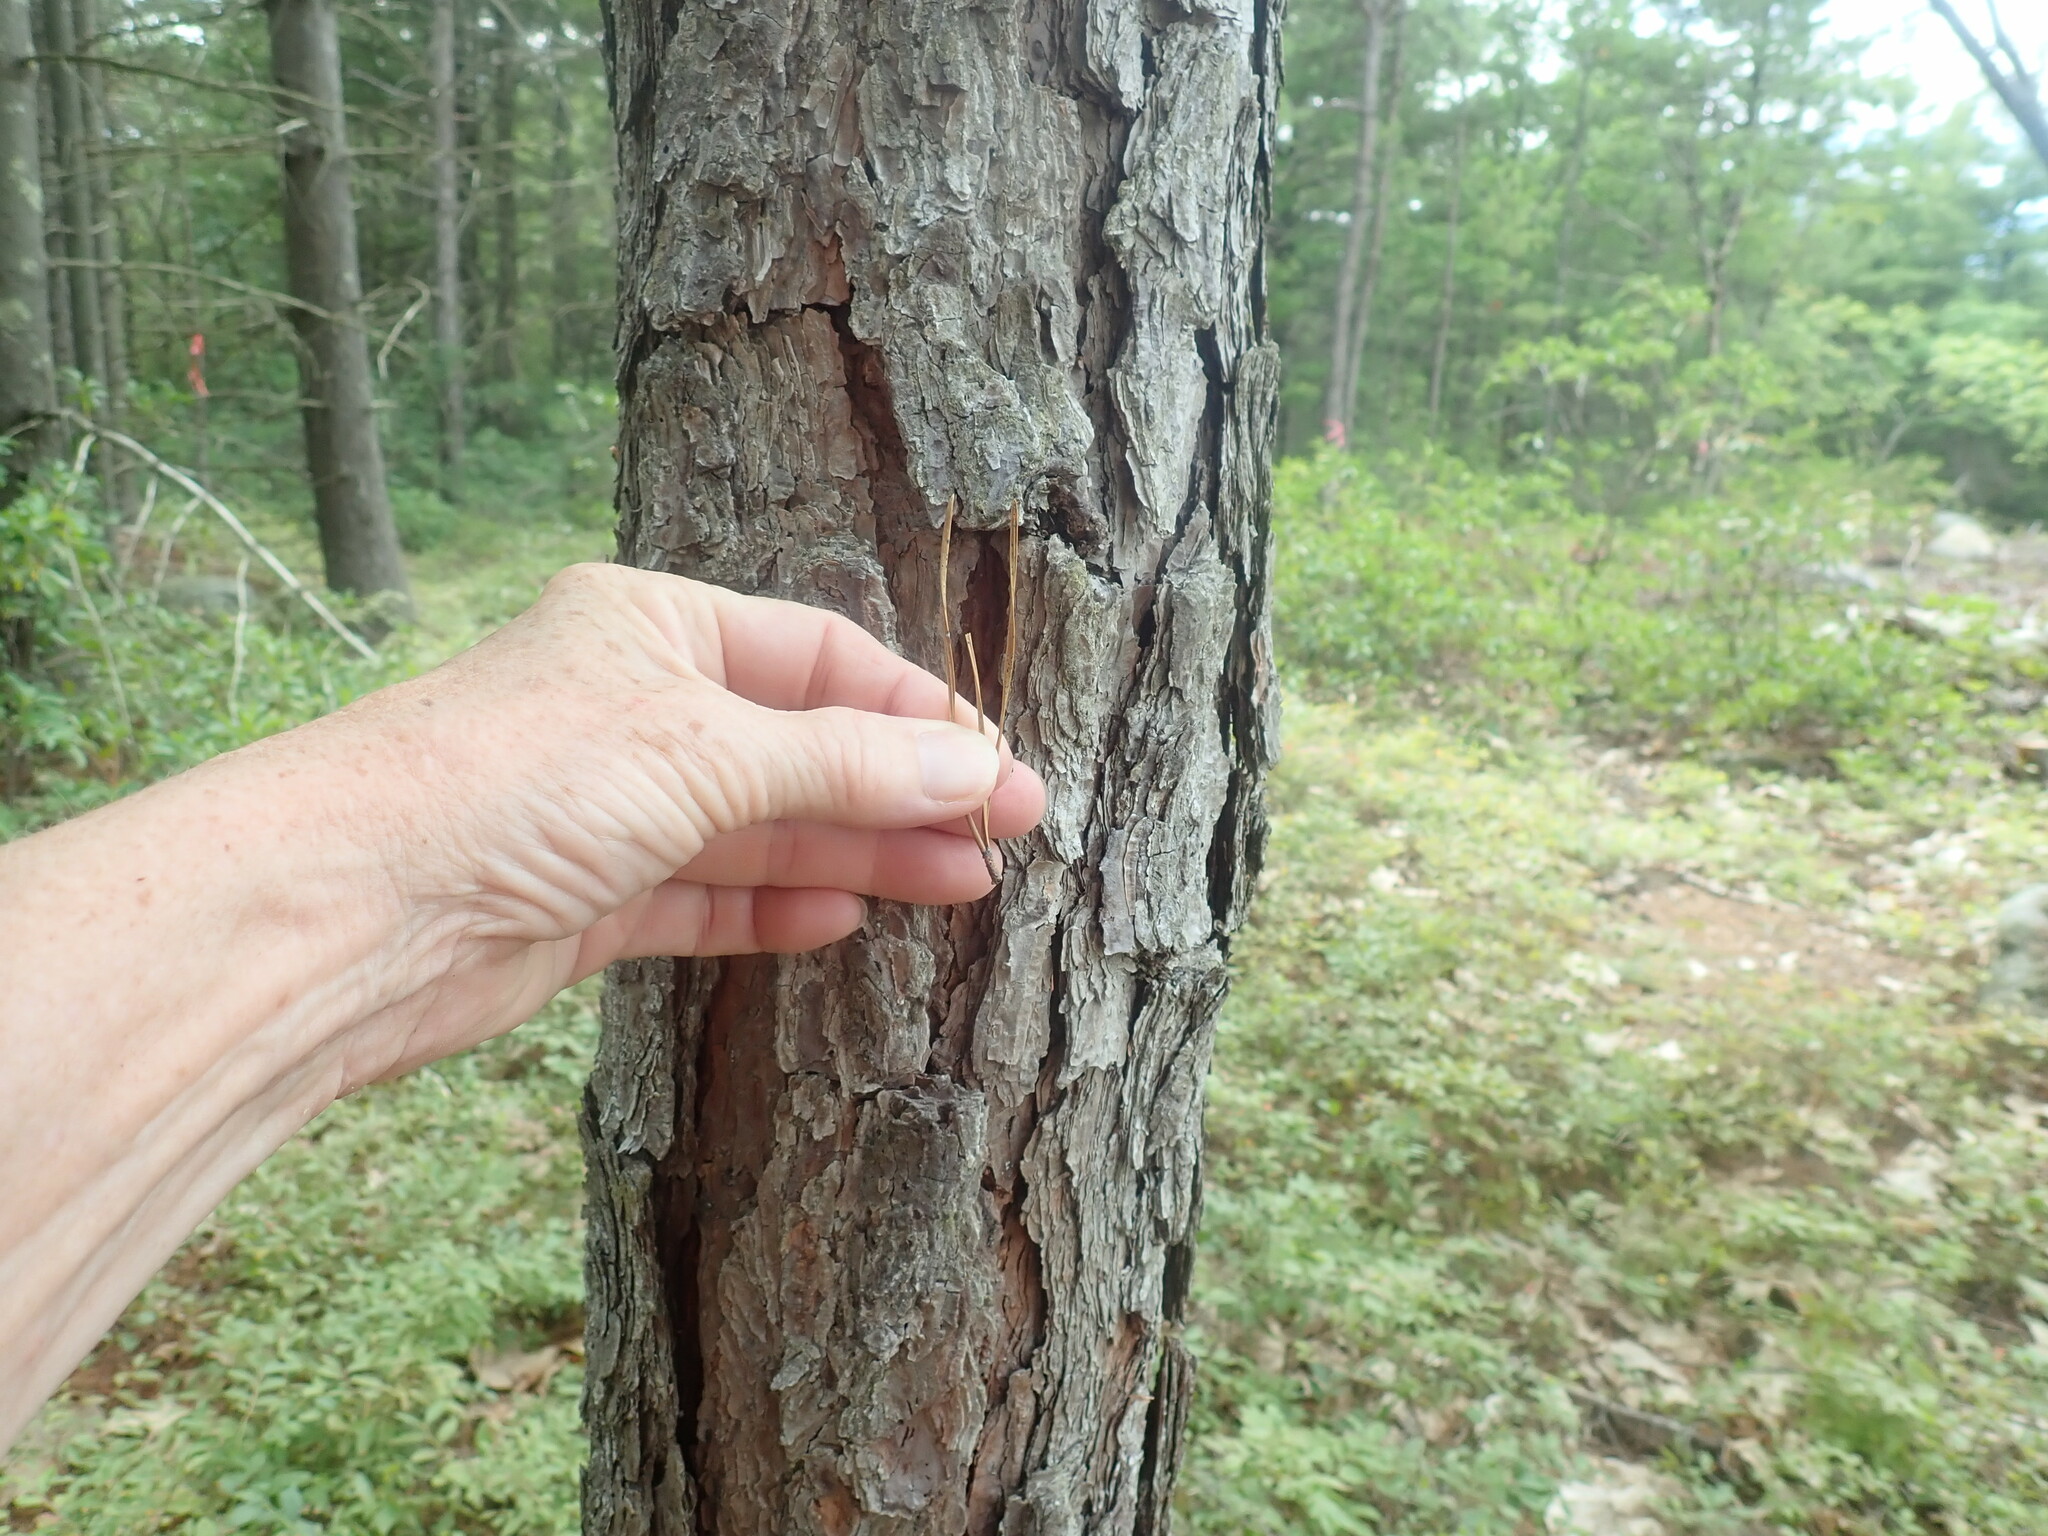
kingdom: Plantae
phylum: Tracheophyta
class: Pinopsida
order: Pinales
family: Pinaceae
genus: Pinus
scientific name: Pinus rigida
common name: Pitch pine
